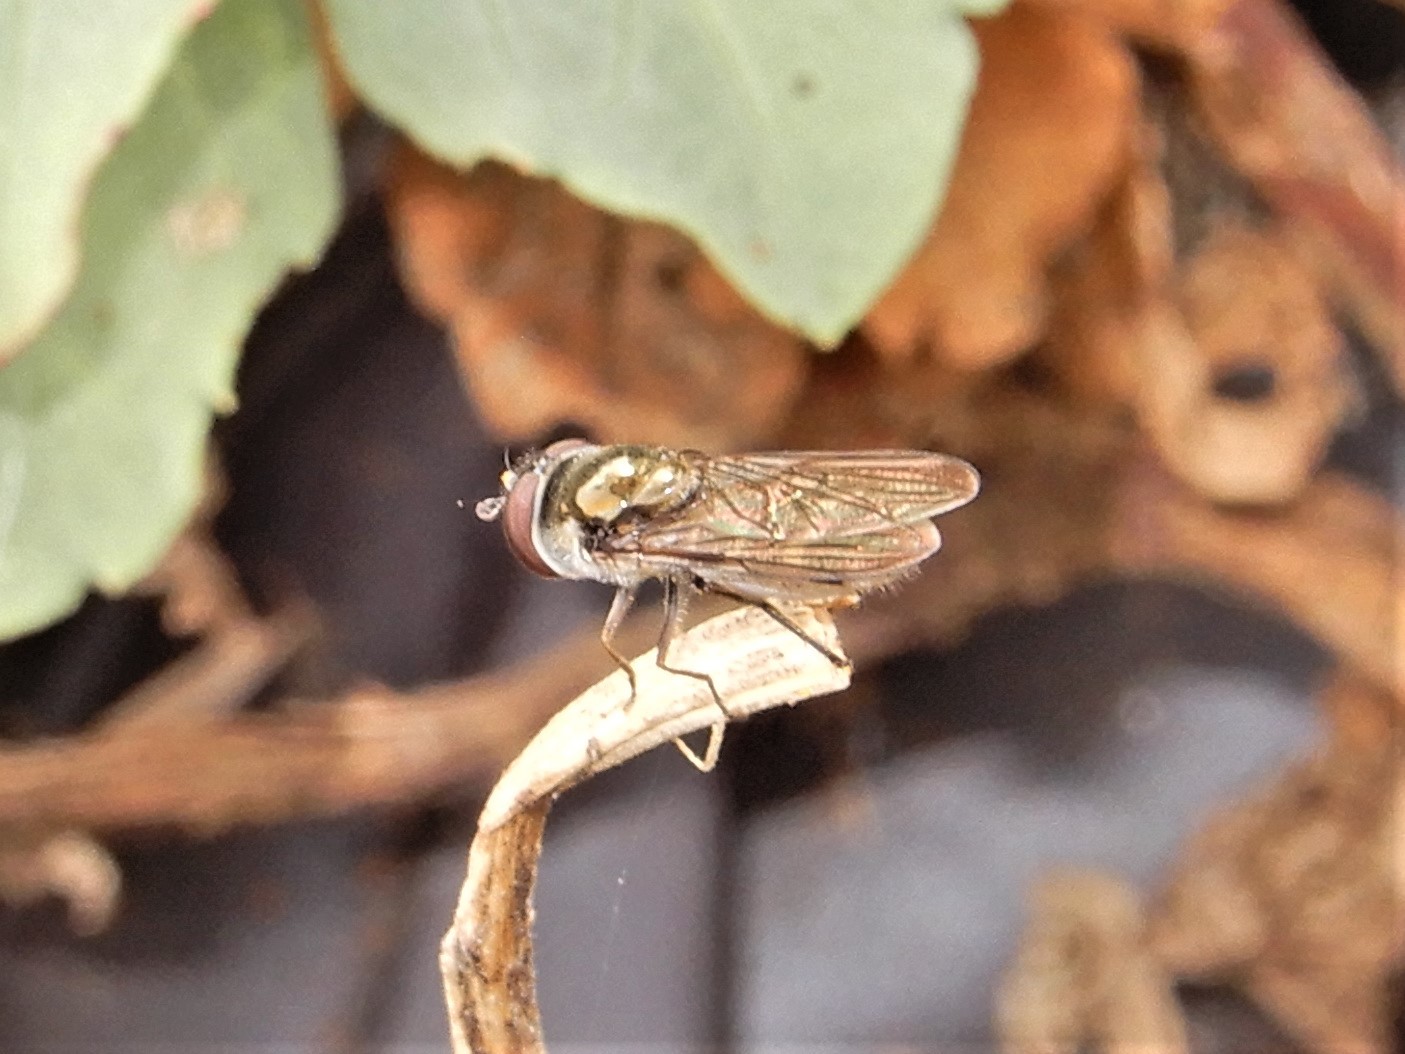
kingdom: Animalia
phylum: Arthropoda
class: Insecta
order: Diptera
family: Syrphidae
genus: Melangyna
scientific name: Melangyna novaezelandiae
